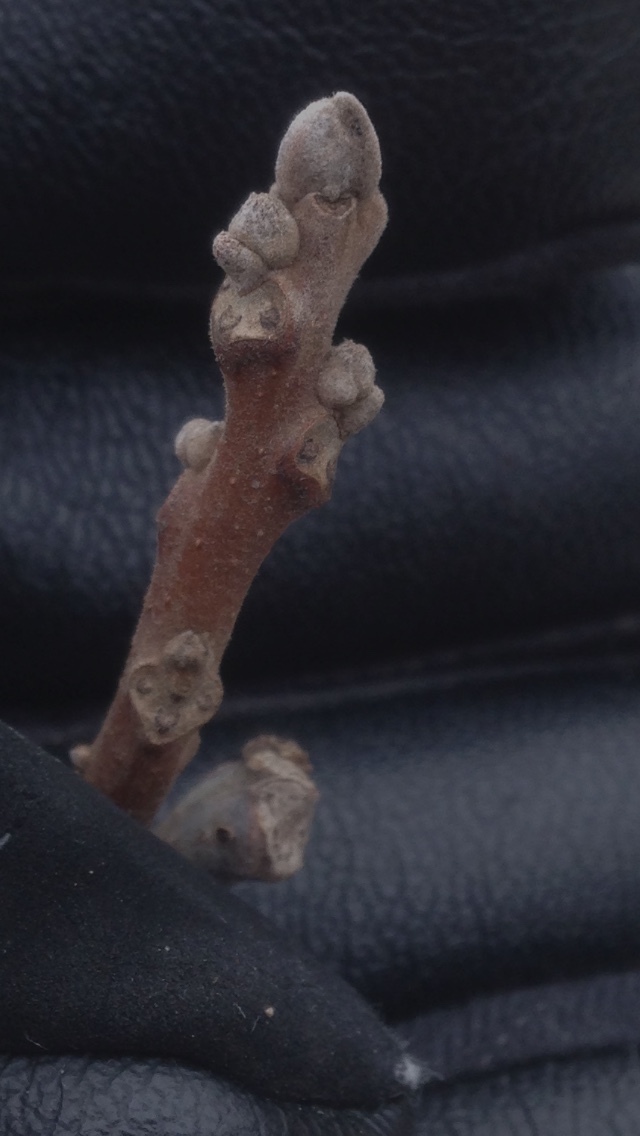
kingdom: Plantae
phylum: Tracheophyta
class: Magnoliopsida
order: Fagales
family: Juglandaceae
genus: Juglans
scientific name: Juglans nigra
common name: Black walnut
